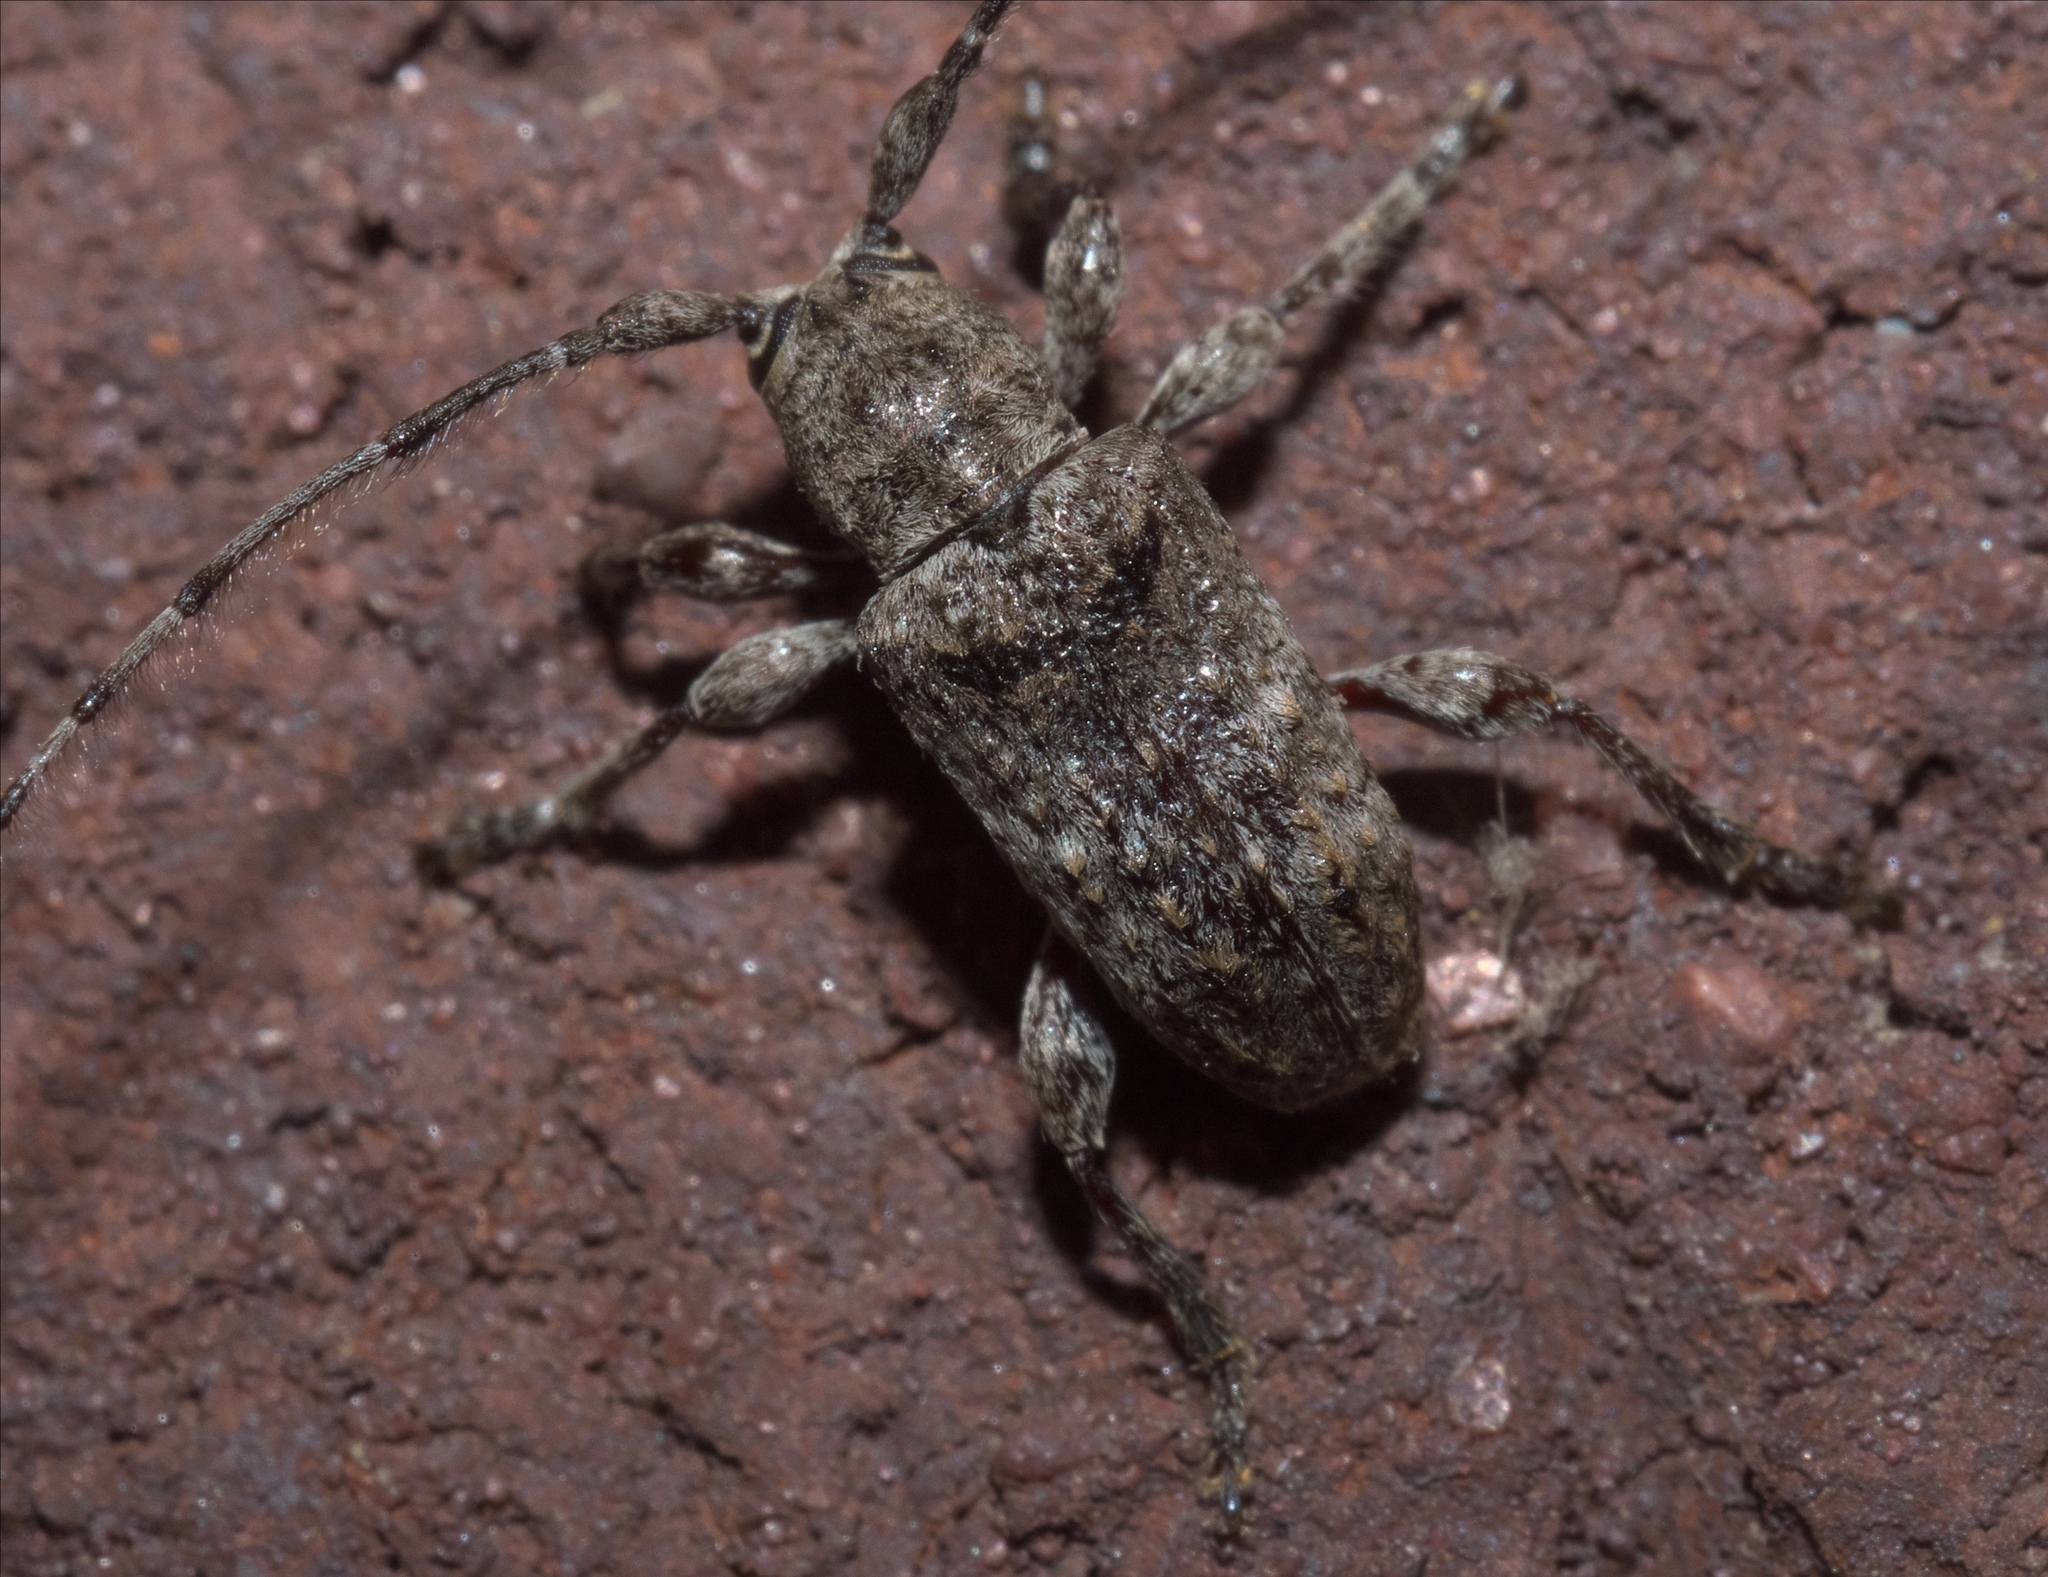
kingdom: Animalia
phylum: Arthropoda
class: Insecta
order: Coleoptera
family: Cerambycidae
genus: Ecyrus
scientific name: Ecyrus dasycerus
